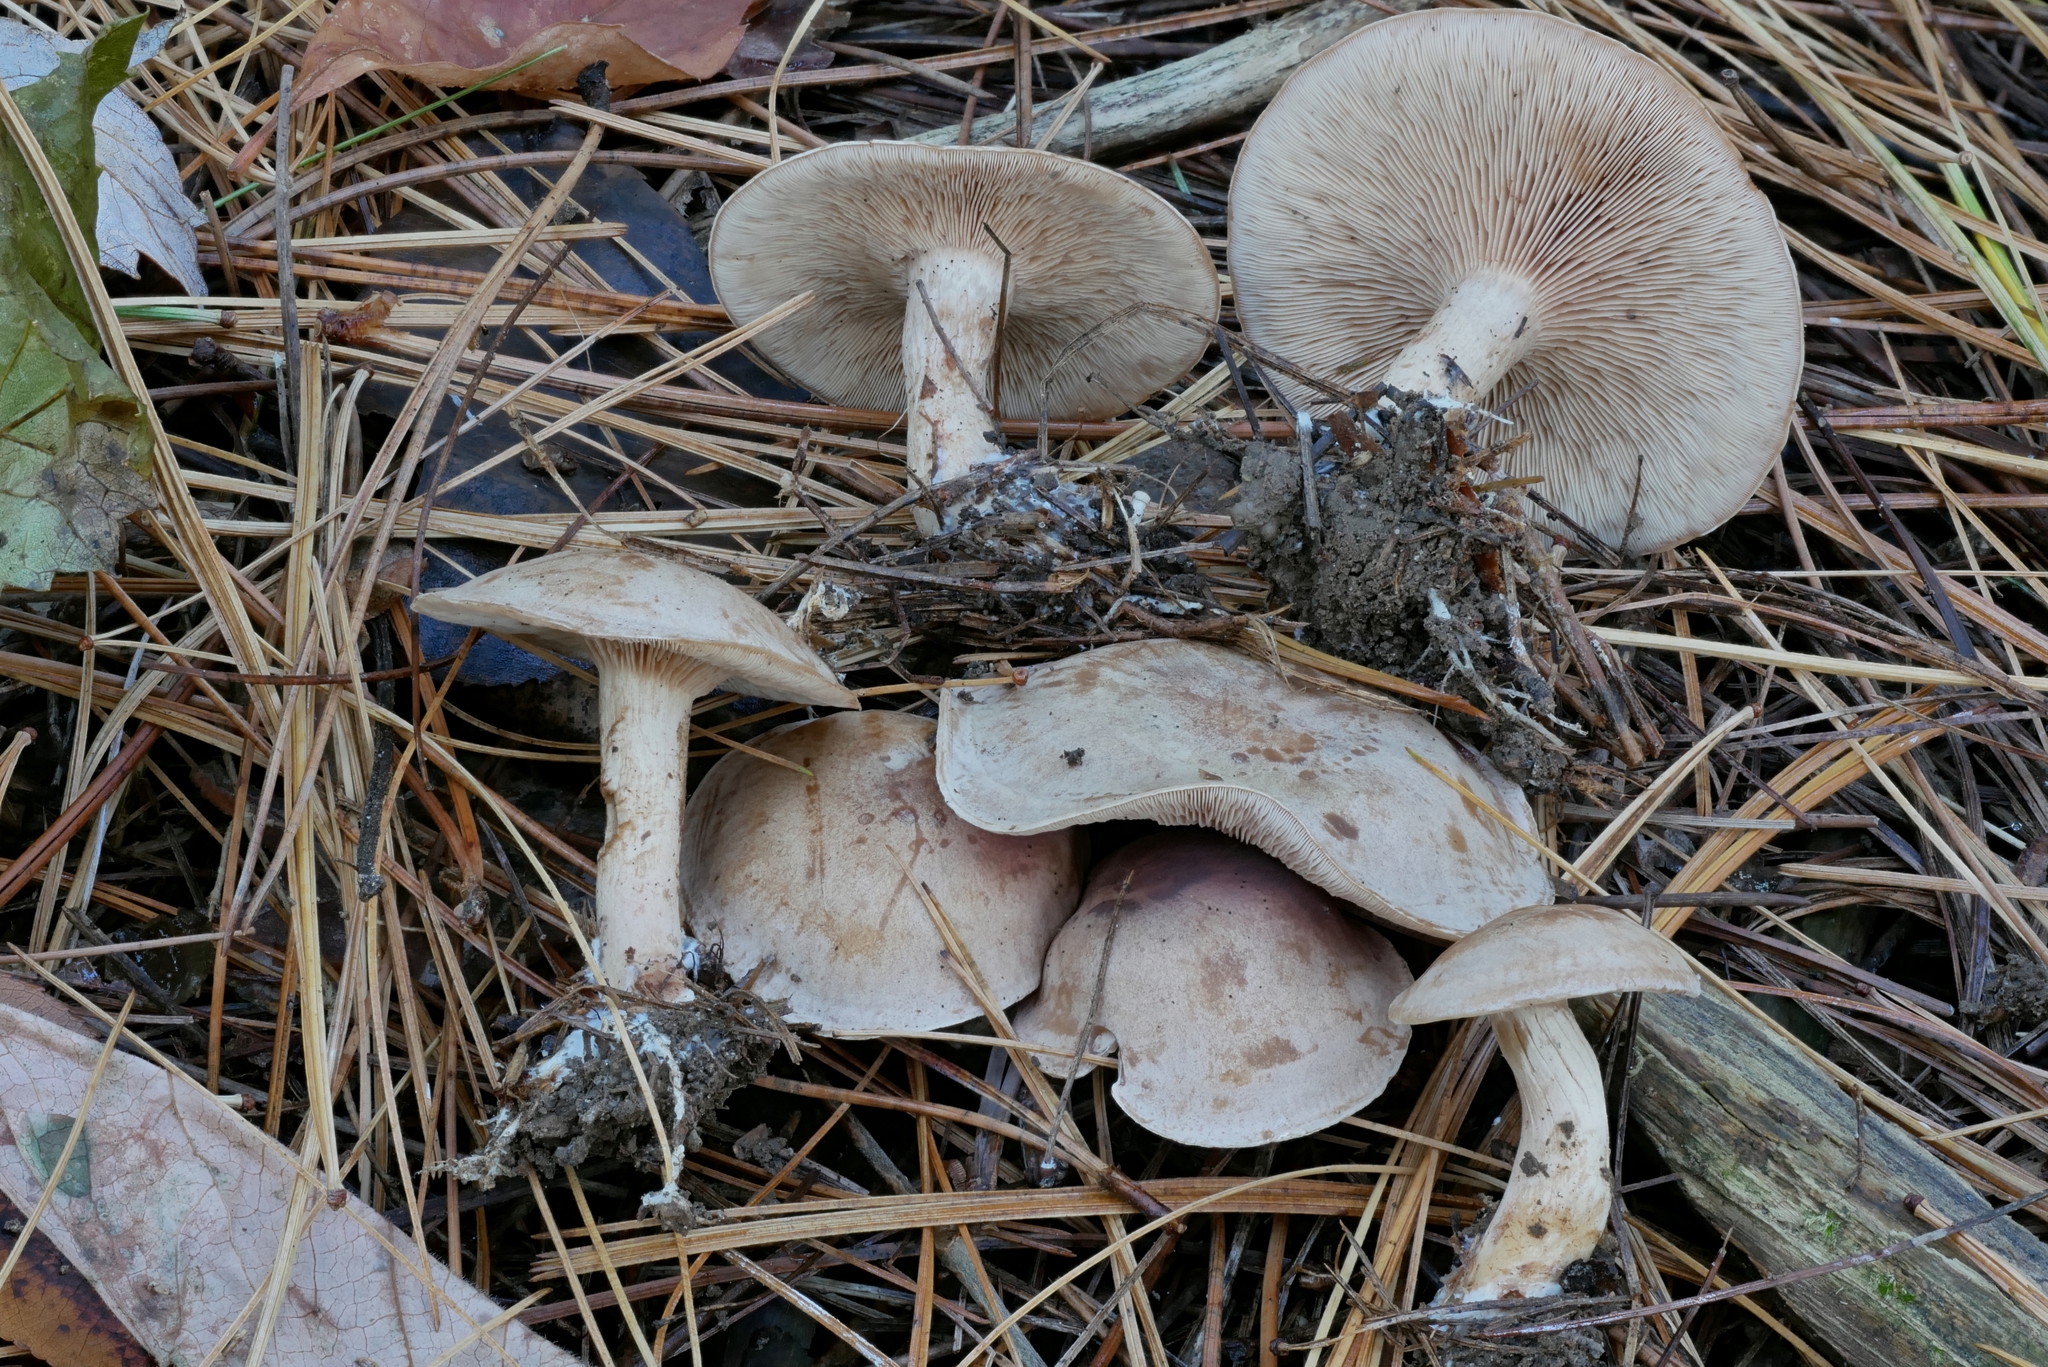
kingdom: Fungi
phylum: Basidiomycota
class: Agaricomycetes
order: Agaricales
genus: Hertzogia
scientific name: Hertzogia martiorum
